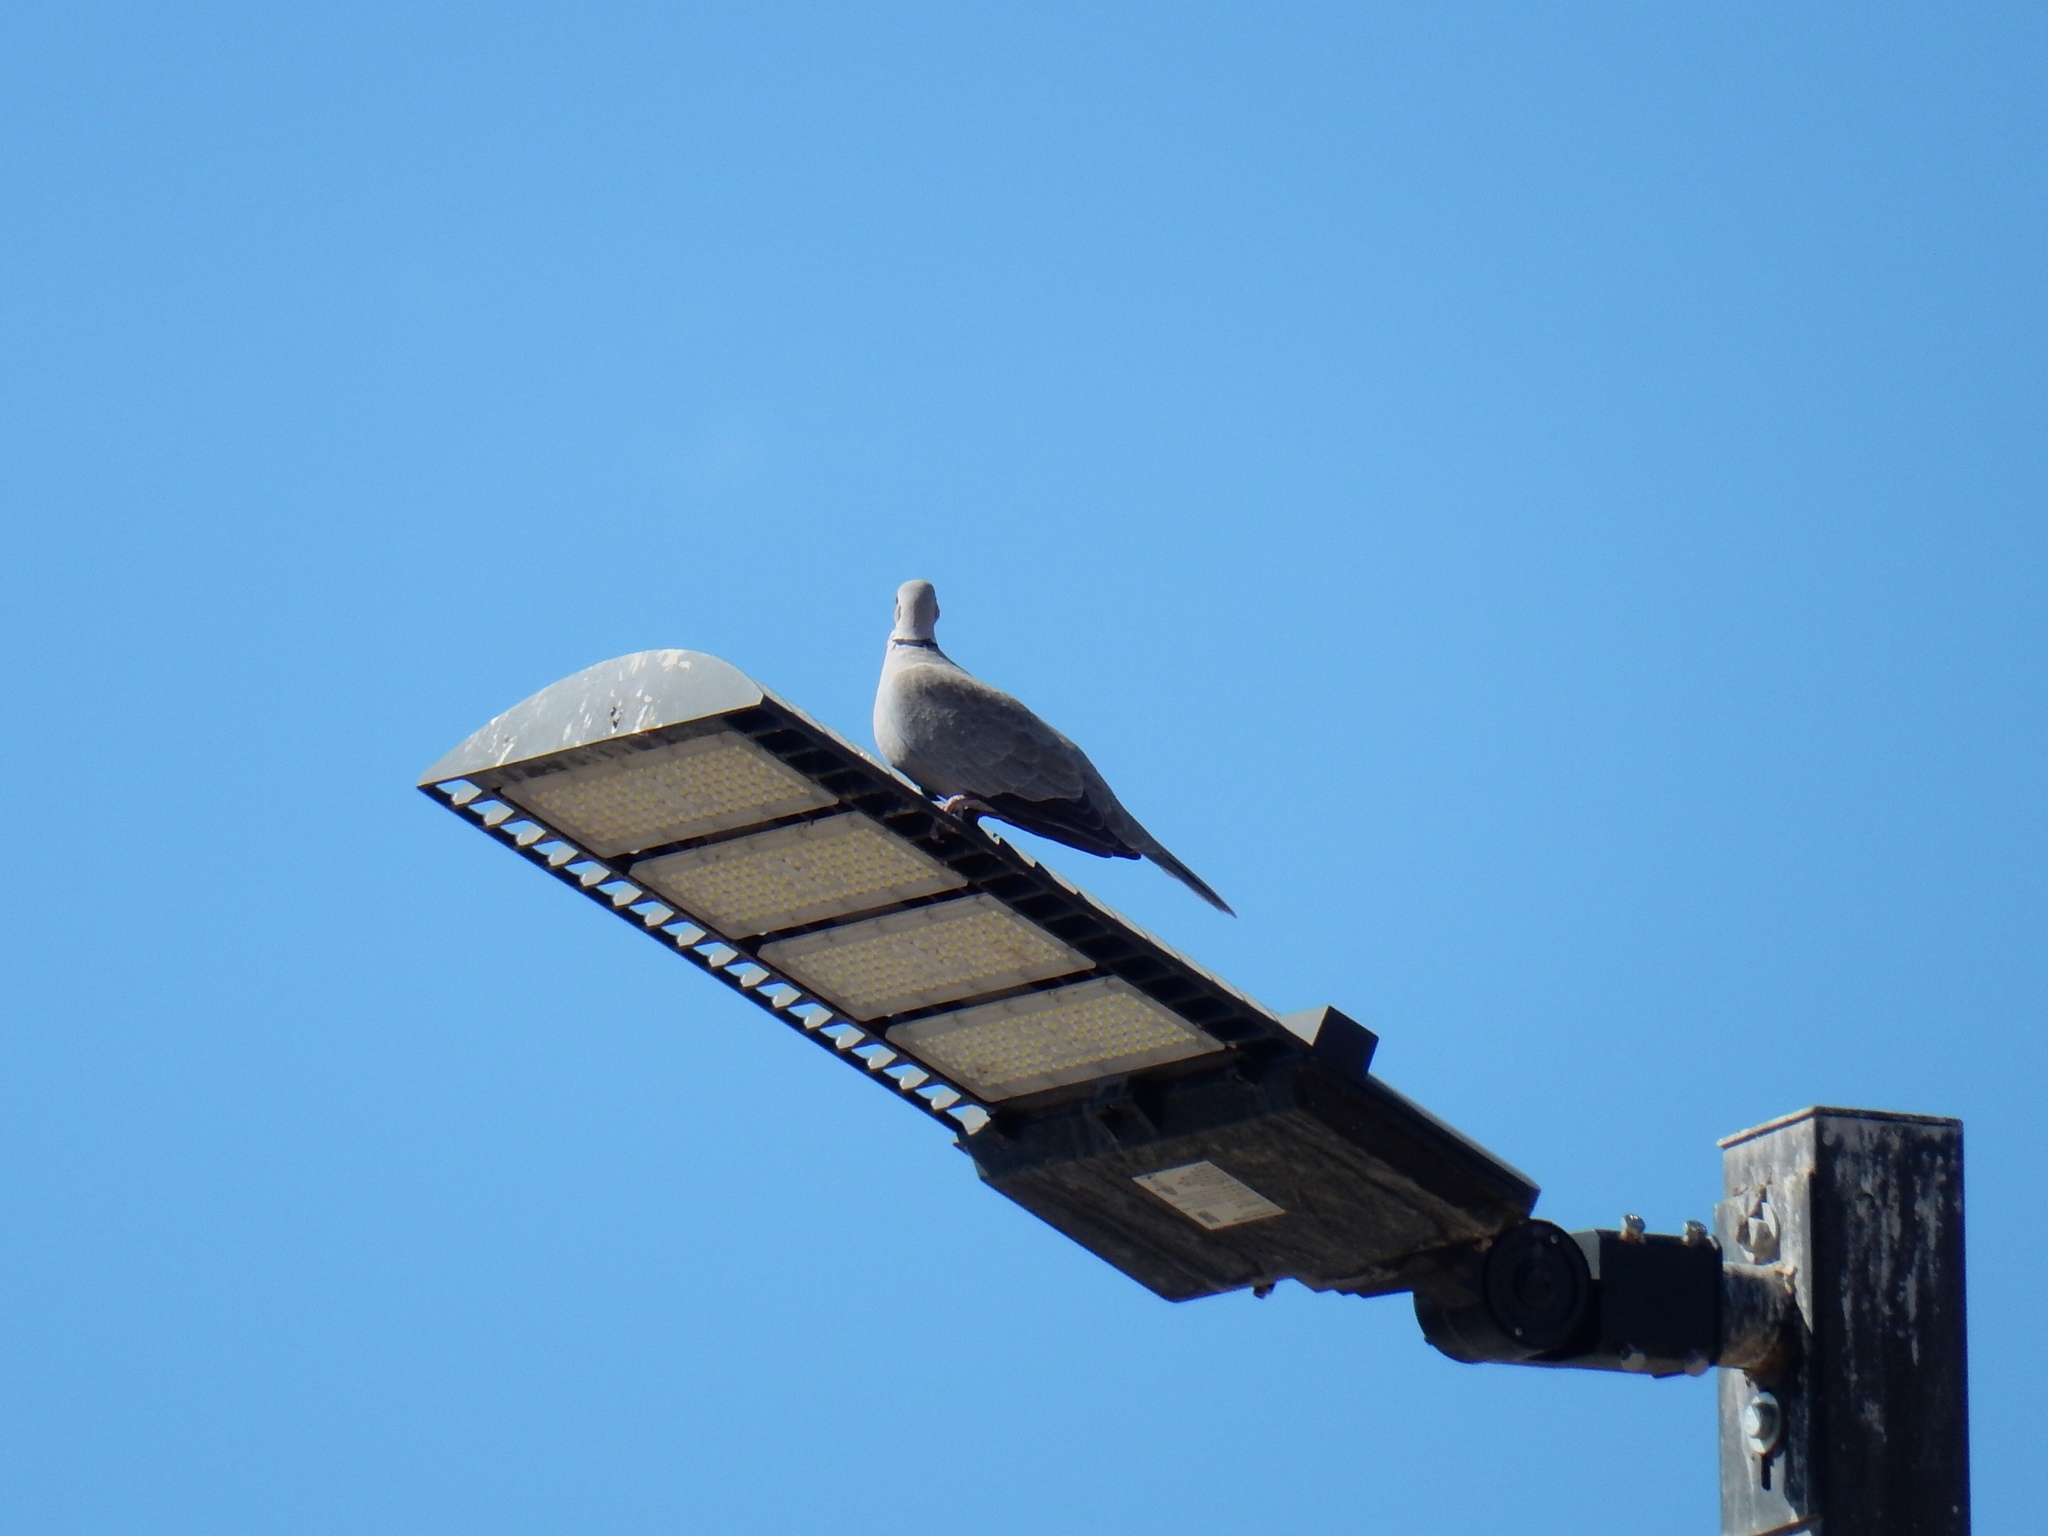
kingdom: Animalia
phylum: Chordata
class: Aves
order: Columbiformes
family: Columbidae
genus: Streptopelia
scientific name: Streptopelia decaocto
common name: Eurasian collared dove
